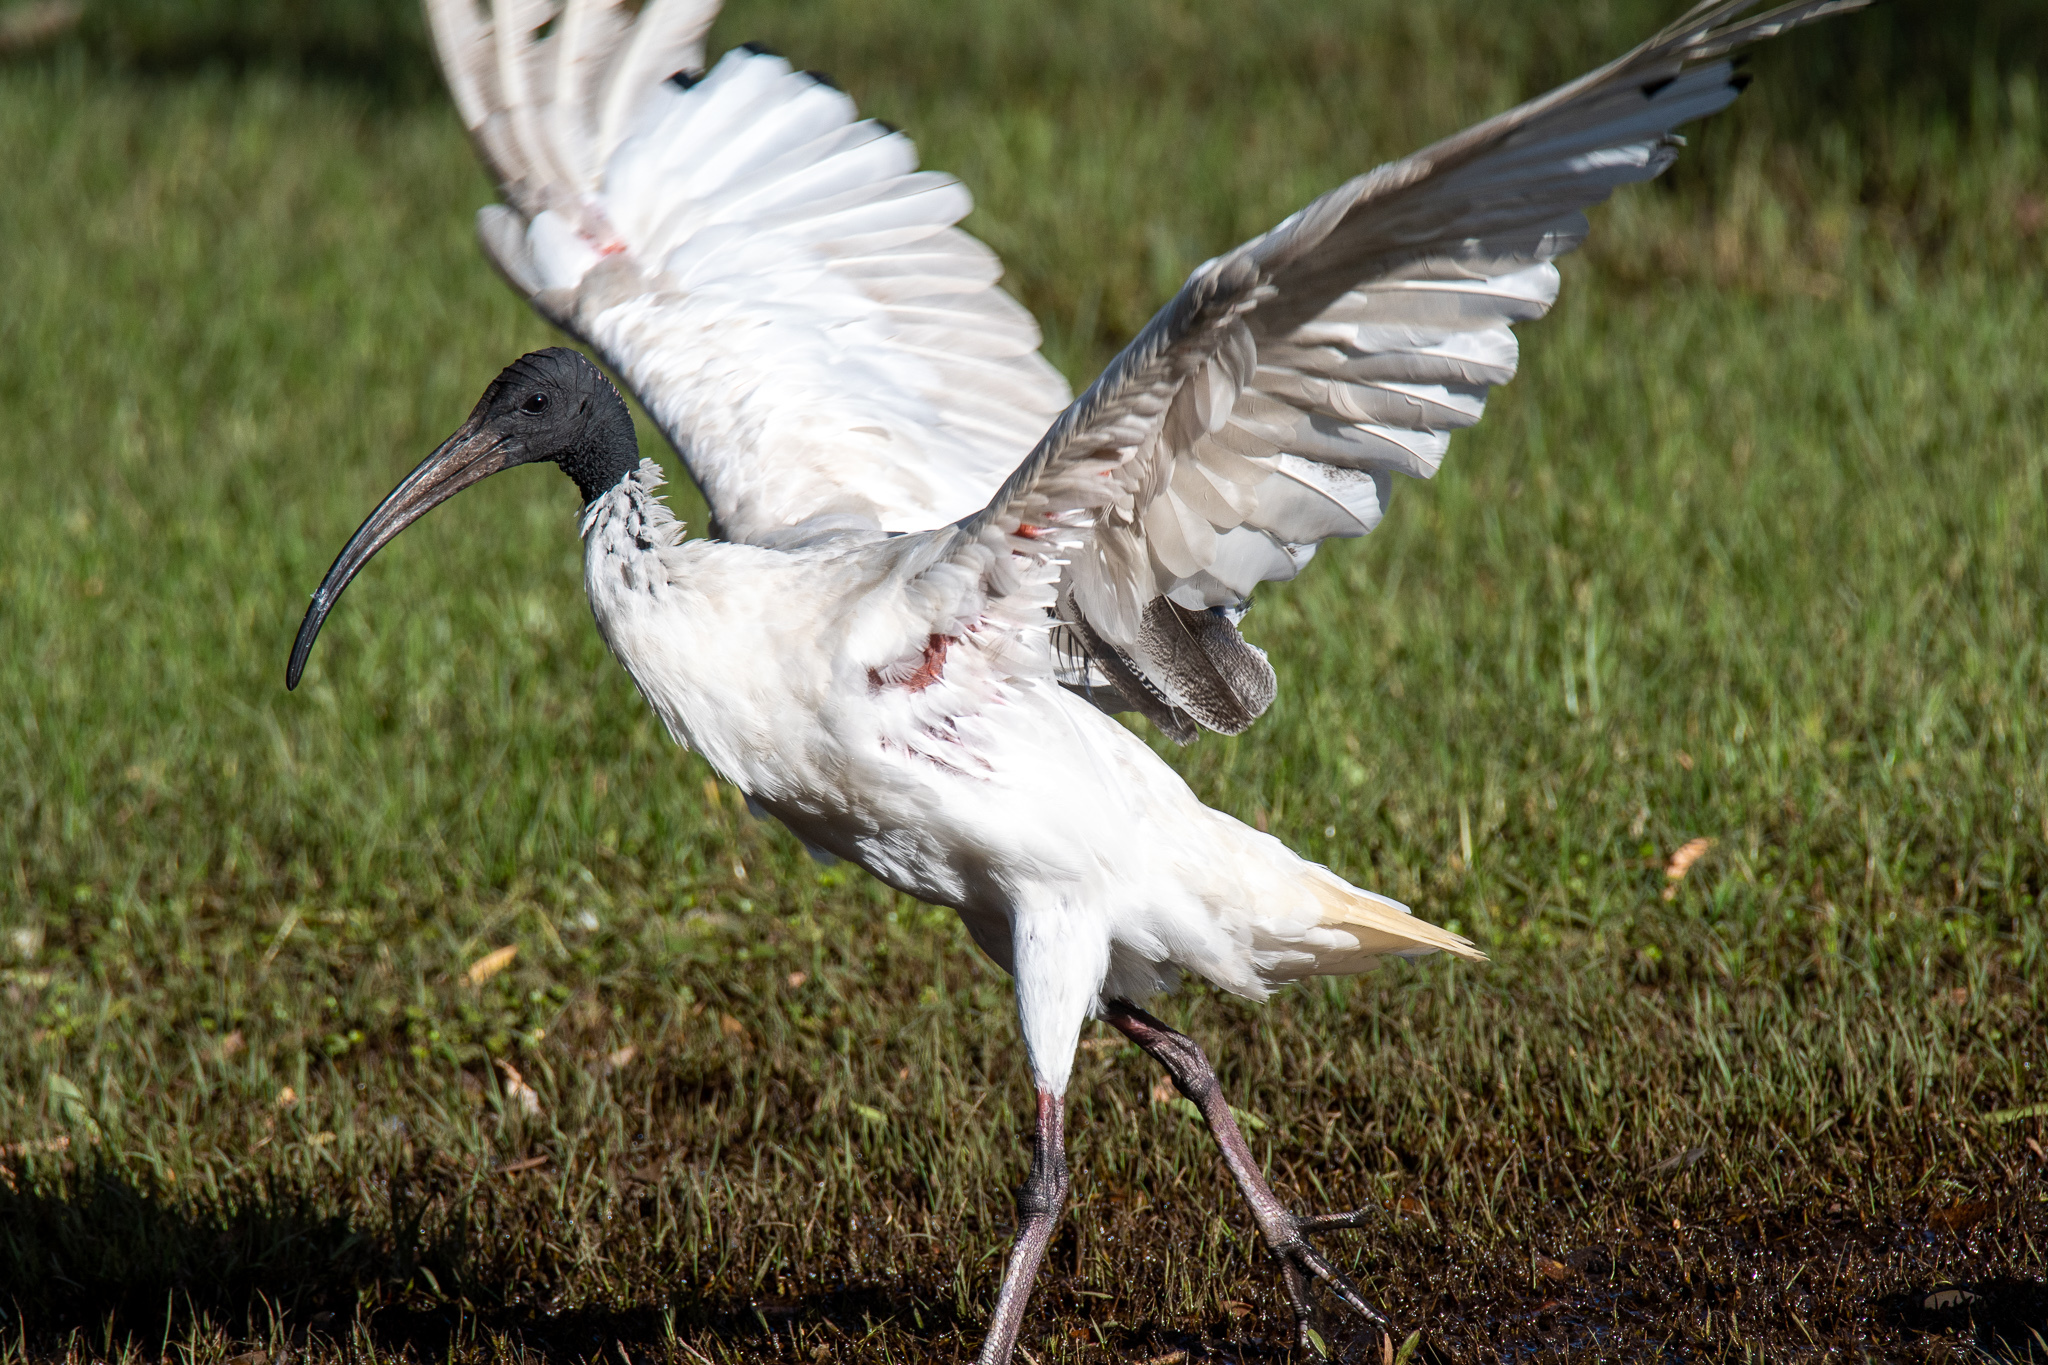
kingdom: Animalia
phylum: Chordata
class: Aves
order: Pelecaniformes
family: Threskiornithidae
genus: Threskiornis
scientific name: Threskiornis molucca
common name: Australian white ibis
